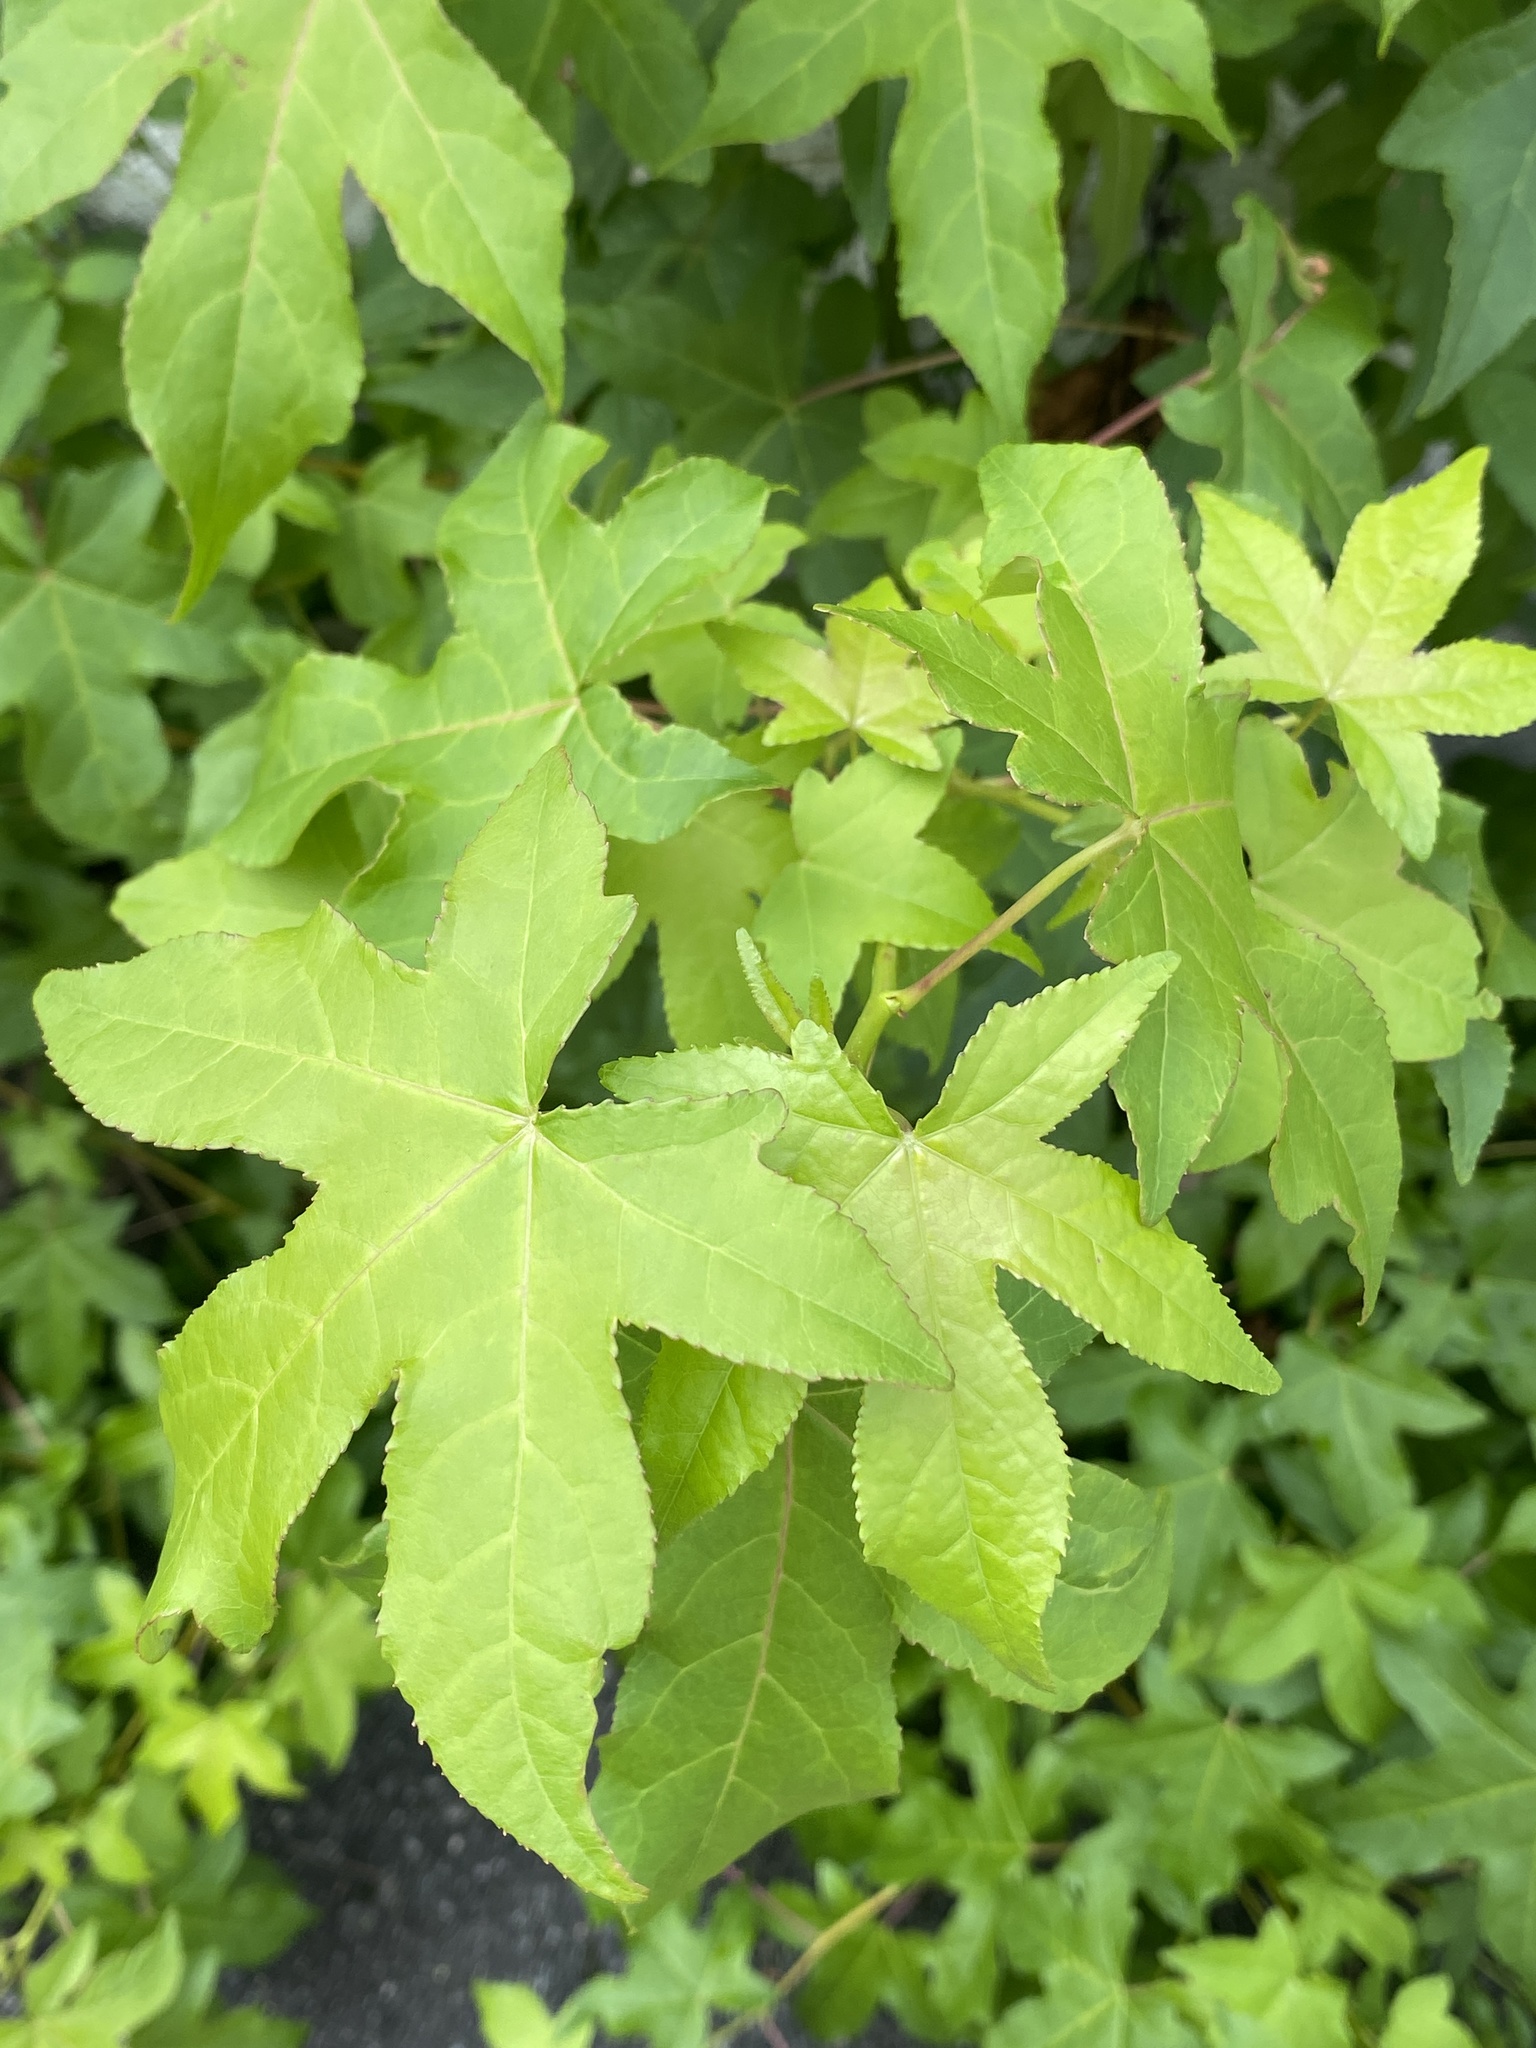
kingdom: Plantae
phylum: Tracheophyta
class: Magnoliopsida
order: Saxifragales
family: Altingiaceae
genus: Liquidambar
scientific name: Liquidambar styraciflua
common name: Sweet gum
